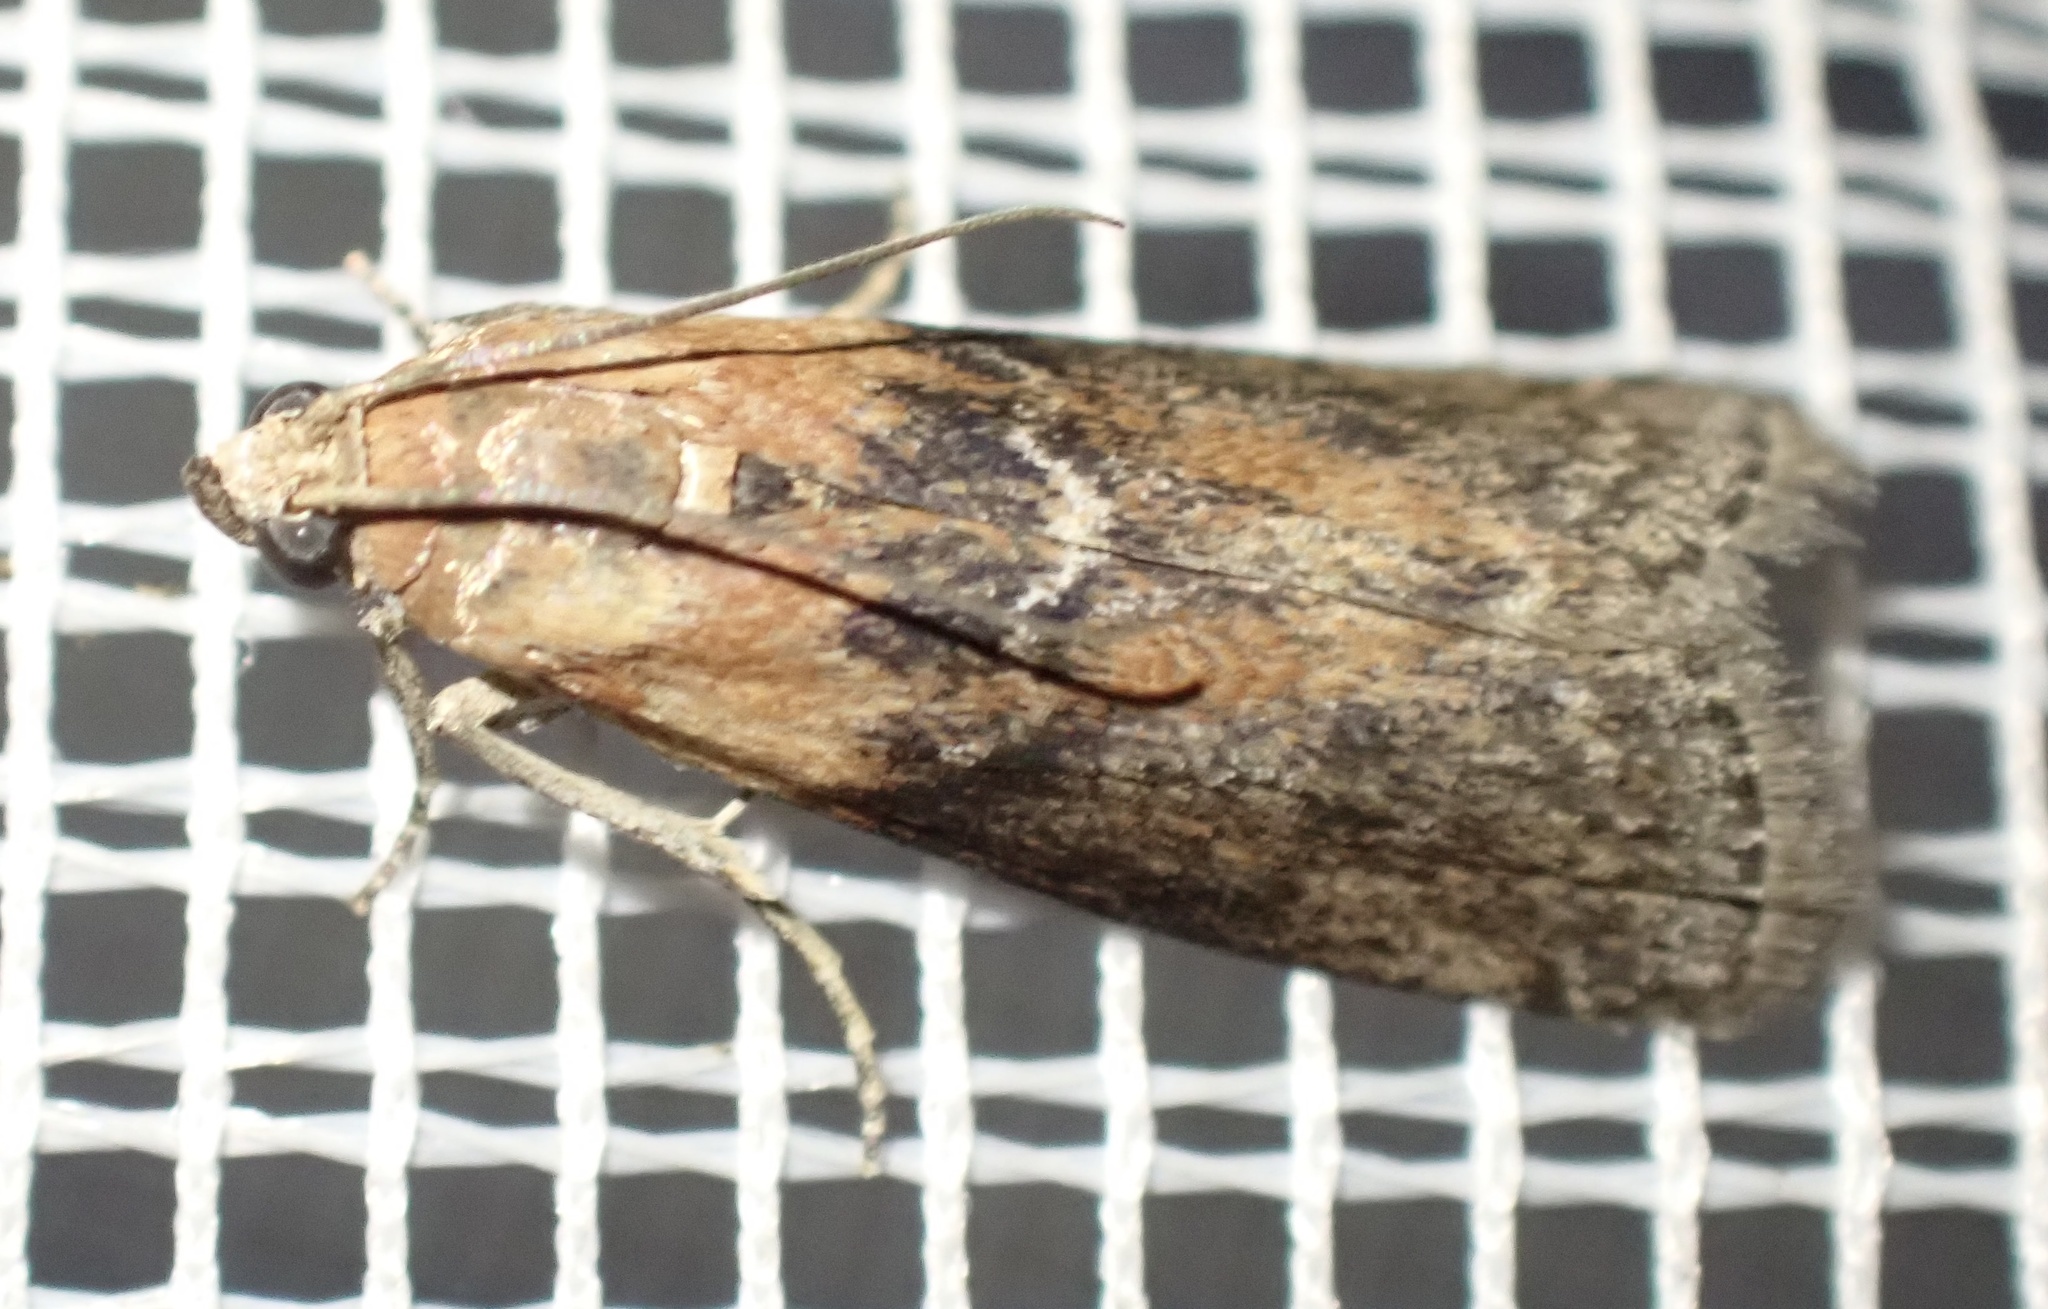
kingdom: Animalia
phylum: Arthropoda
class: Insecta
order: Lepidoptera
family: Pyralidae
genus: Sciota
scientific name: Sciota adelphella
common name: Willow knot-horn
